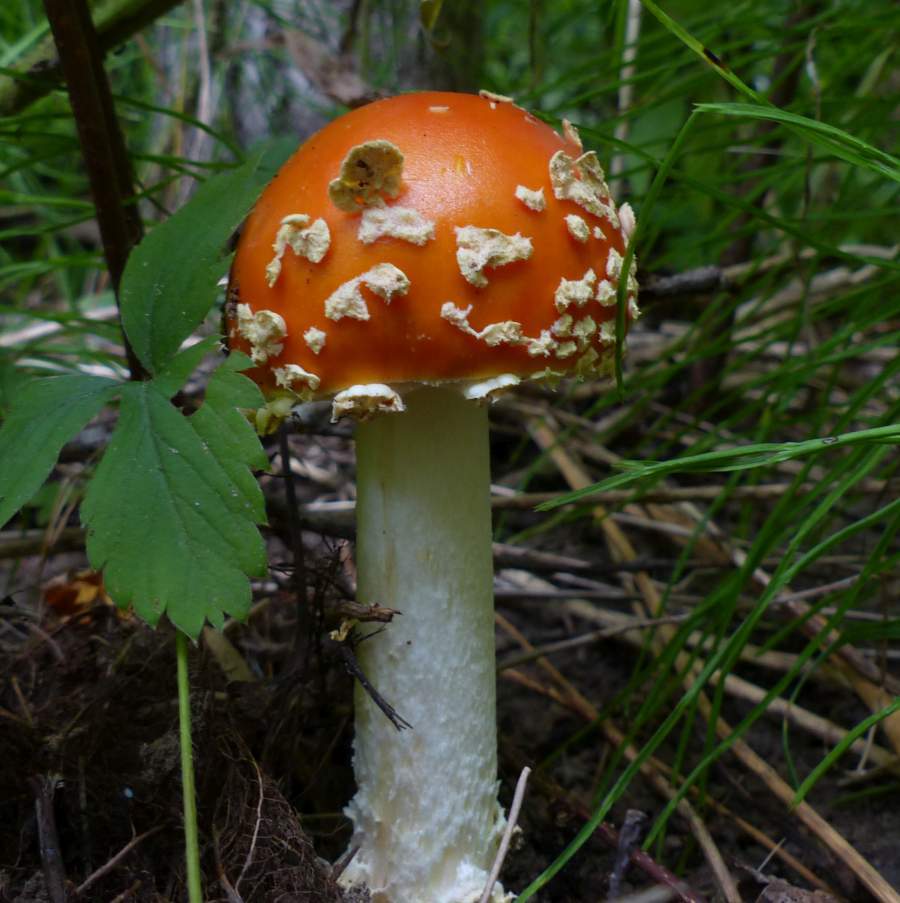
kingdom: Fungi
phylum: Basidiomycota
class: Agaricomycetes
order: Agaricales
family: Amanitaceae
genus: Amanita
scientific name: Amanita muscaria
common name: Fly agaric
